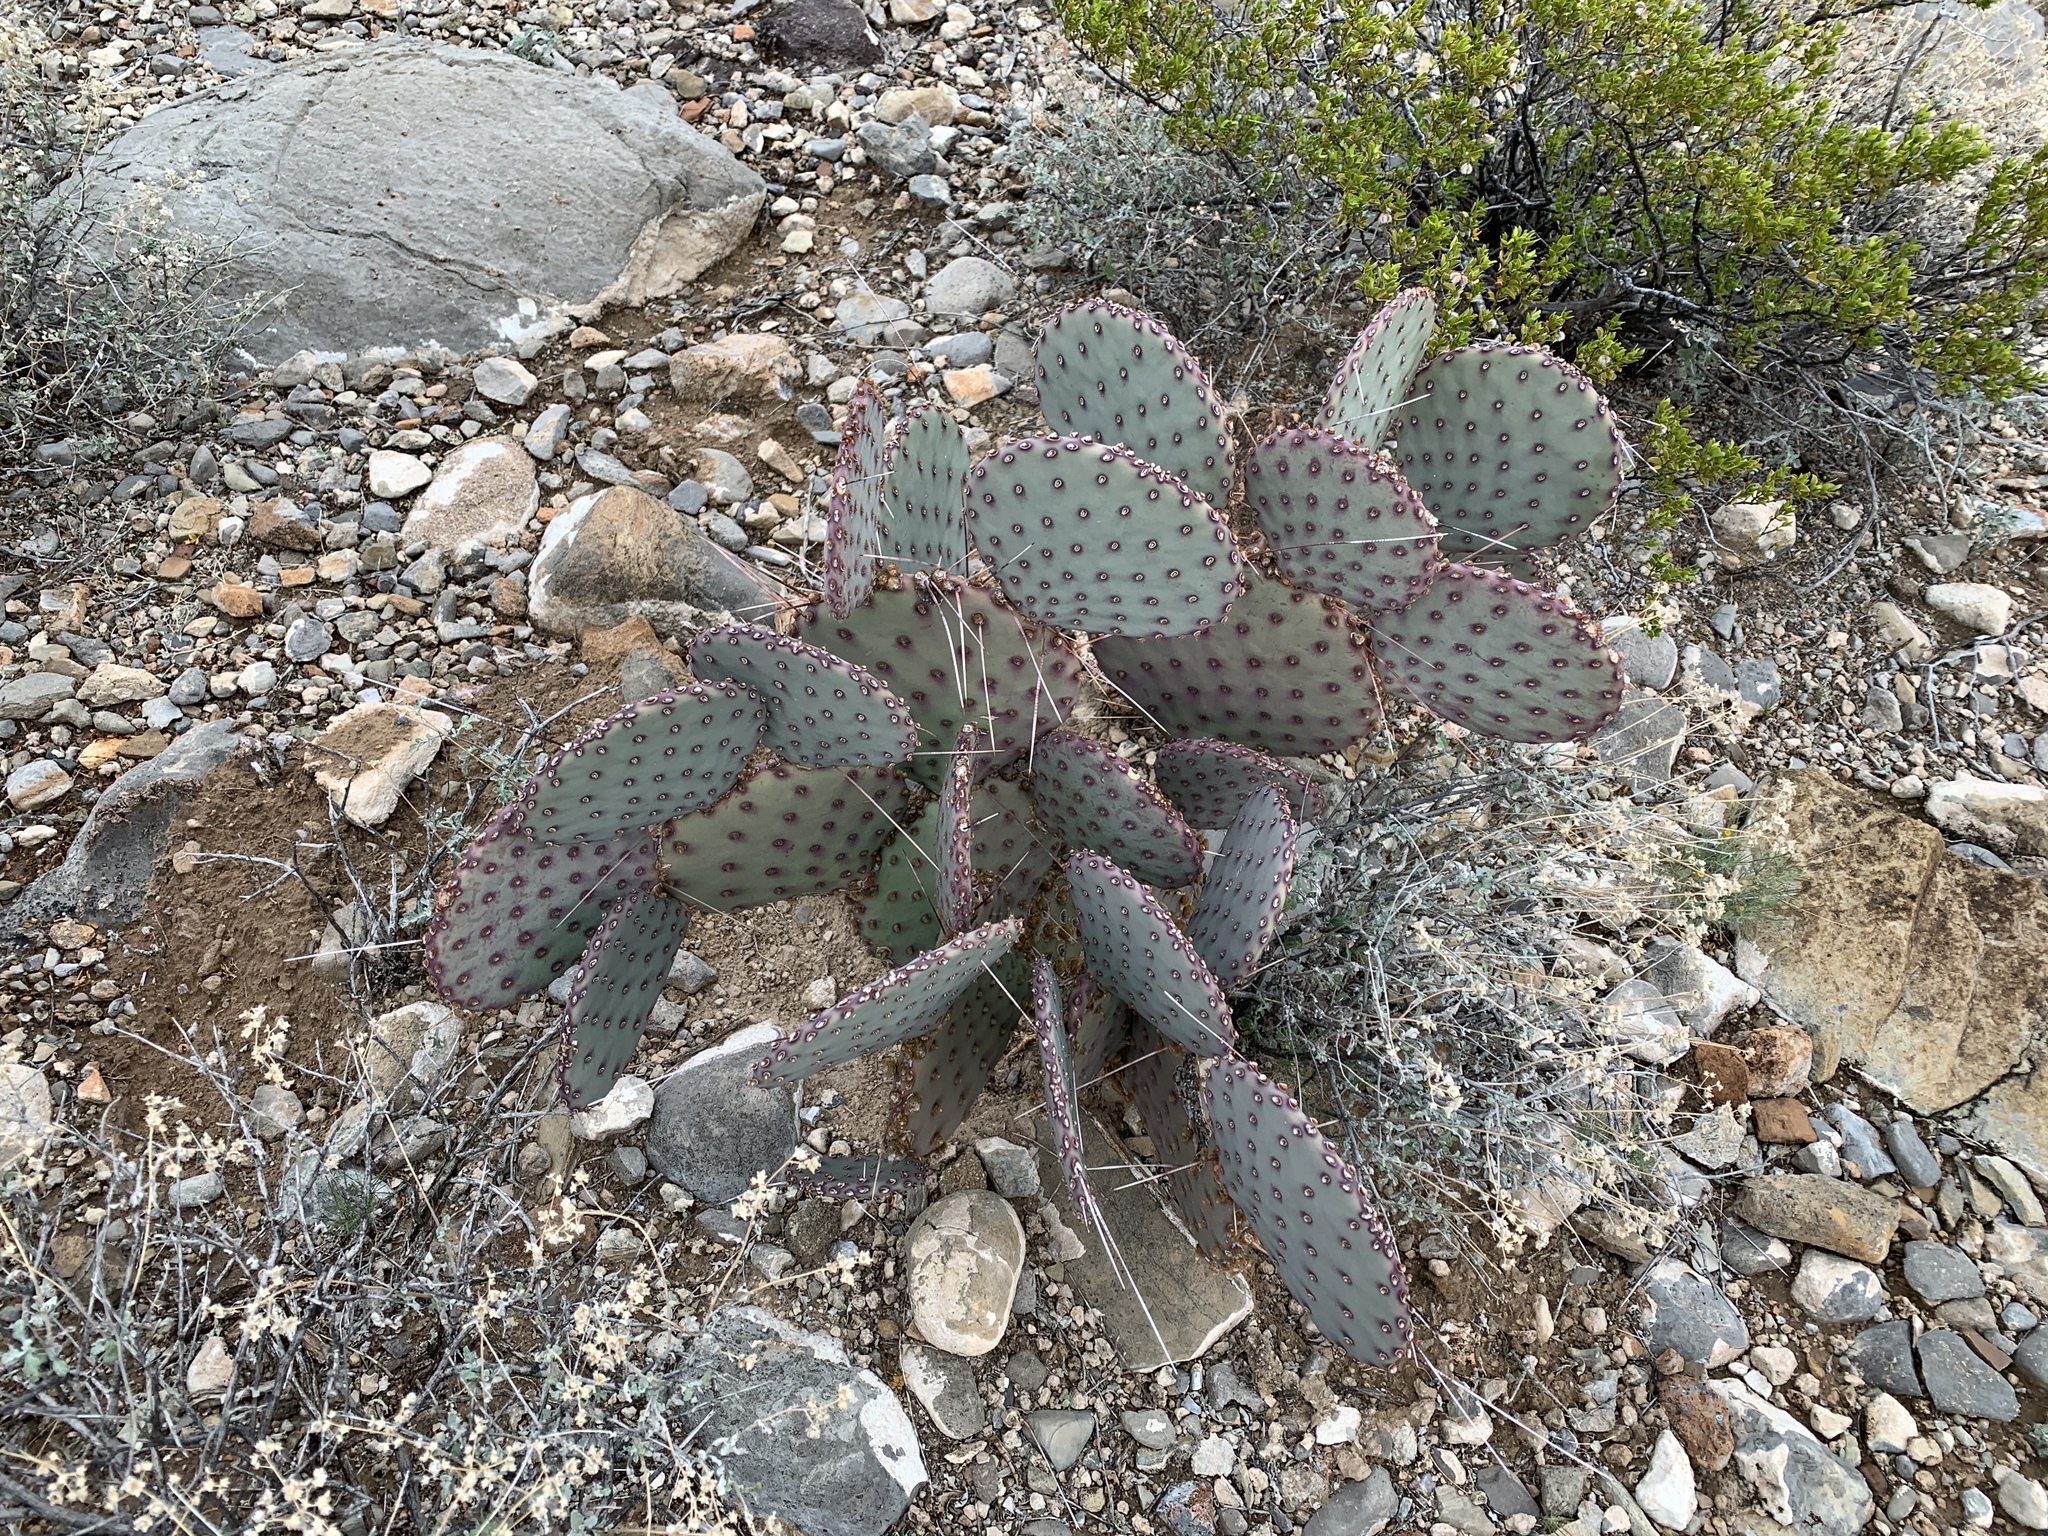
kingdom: Plantae
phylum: Tracheophyta
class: Magnoliopsida
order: Caryophyllales
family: Cactaceae
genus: Opuntia
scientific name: Opuntia macrocentra
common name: Purple prickly-pear
